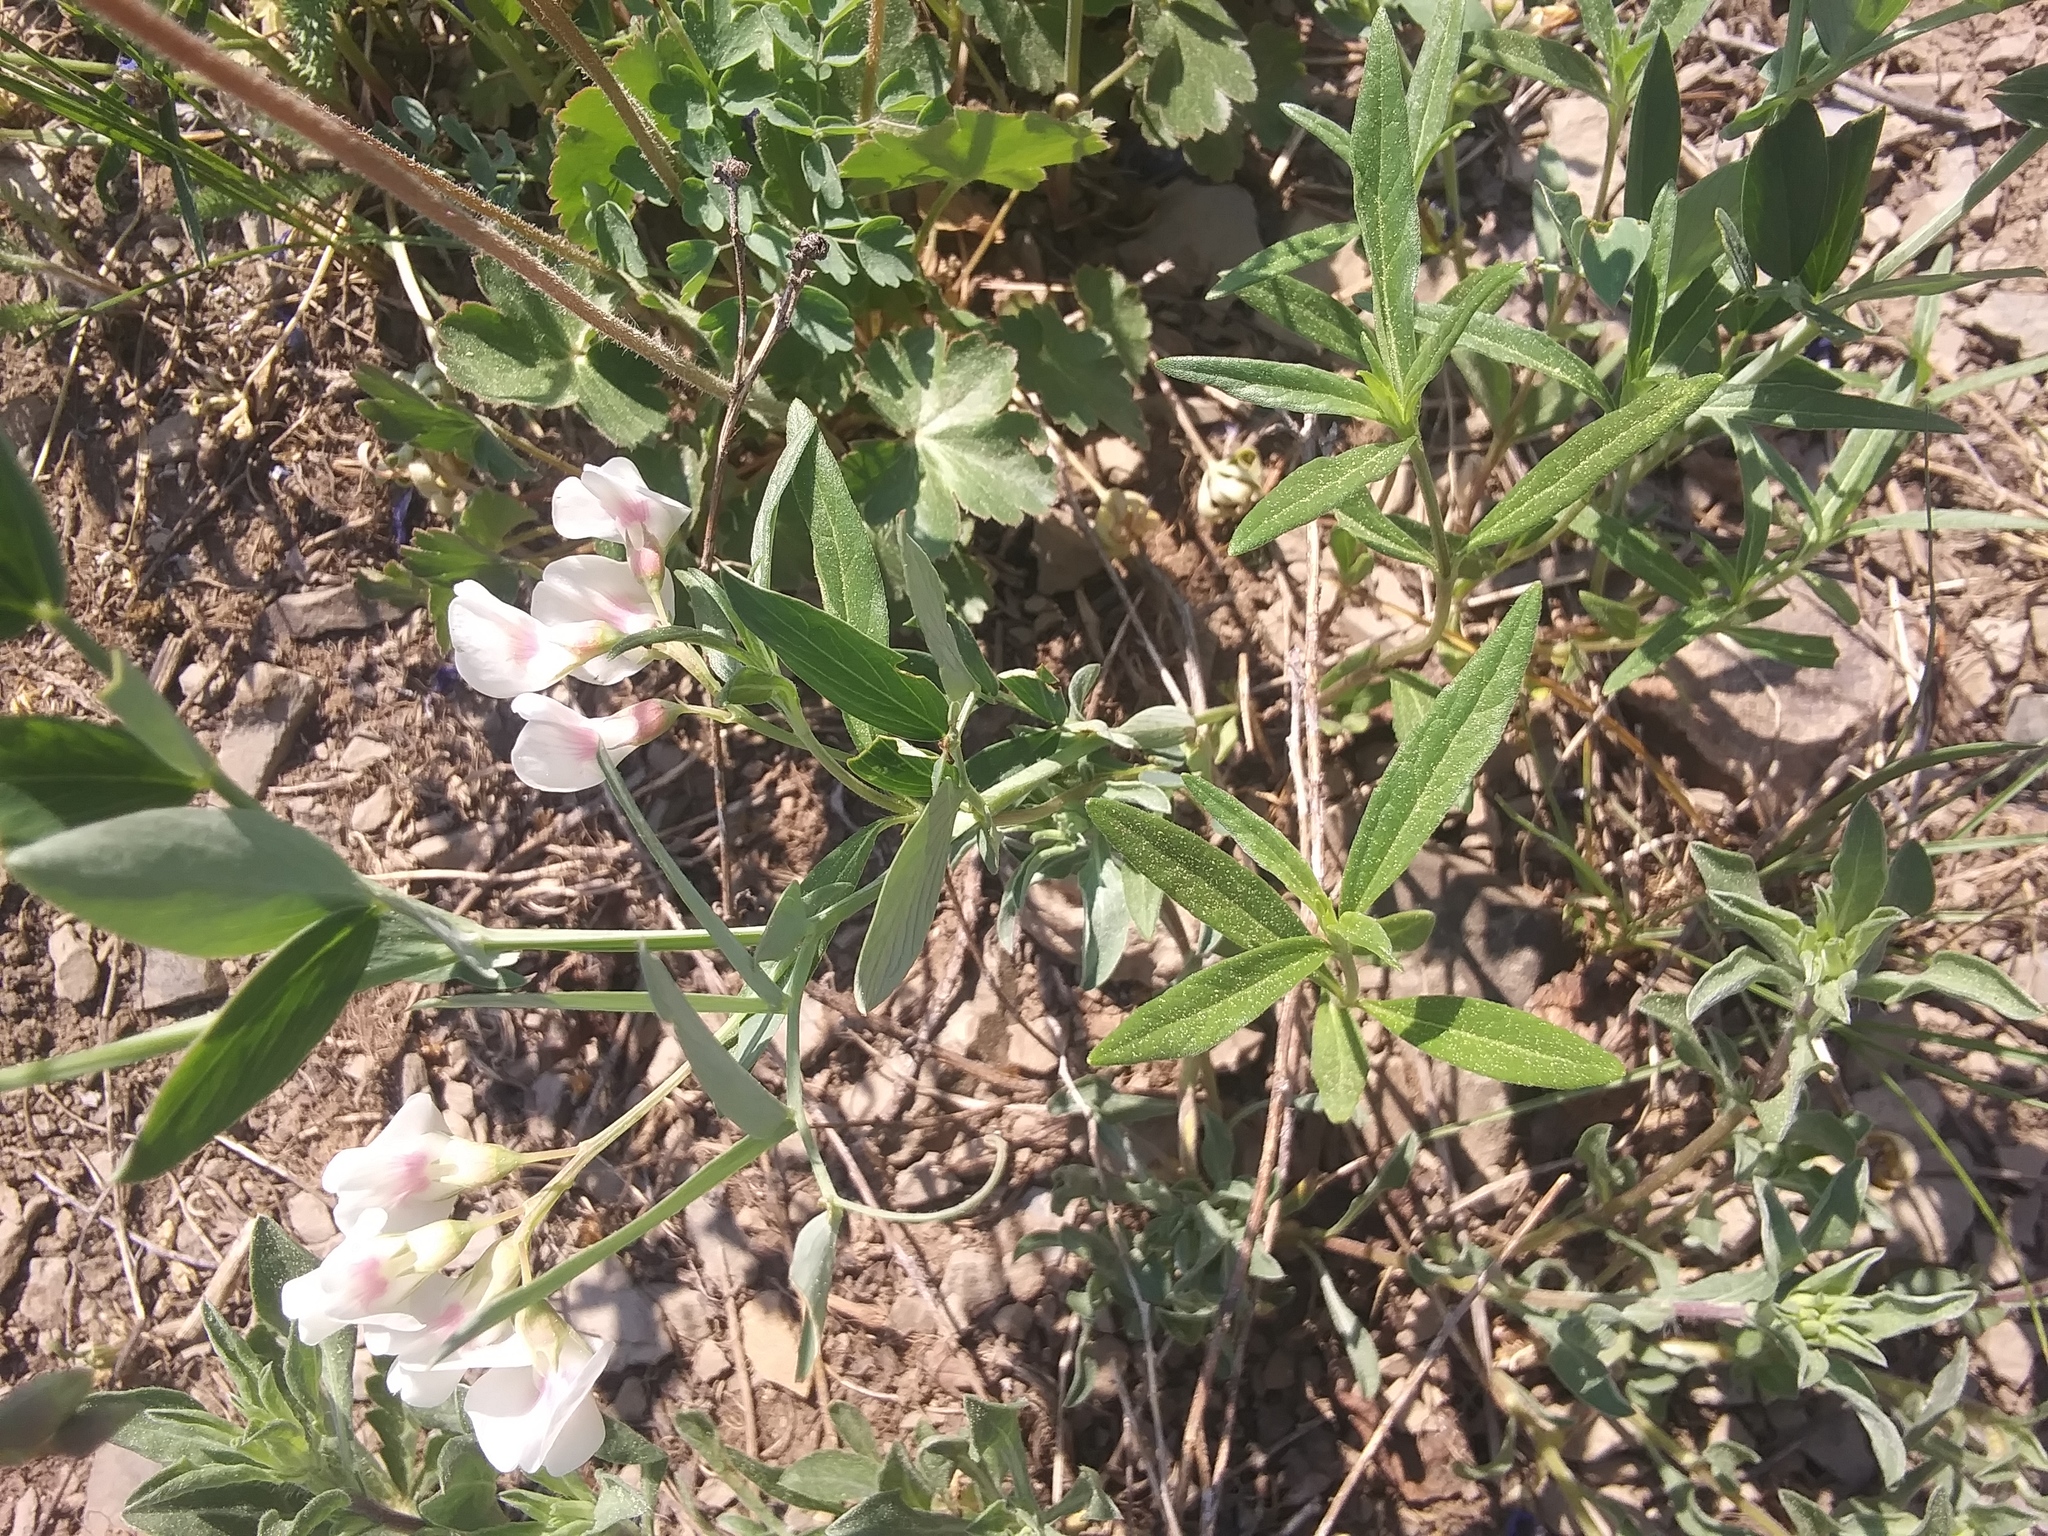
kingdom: Plantae
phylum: Tracheophyta
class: Magnoliopsida
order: Fabales
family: Fabaceae
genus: Lathyrus
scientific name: Lathyrus lanszwertii
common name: Lanszwert's vetchling
